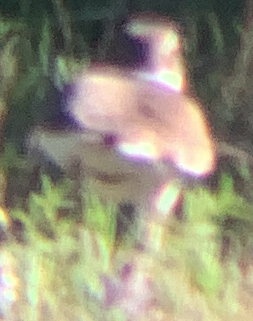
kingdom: Animalia
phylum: Chordata
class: Aves
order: Charadriiformes
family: Charadriidae
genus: Charadrius
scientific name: Charadrius vociferus
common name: Killdeer
